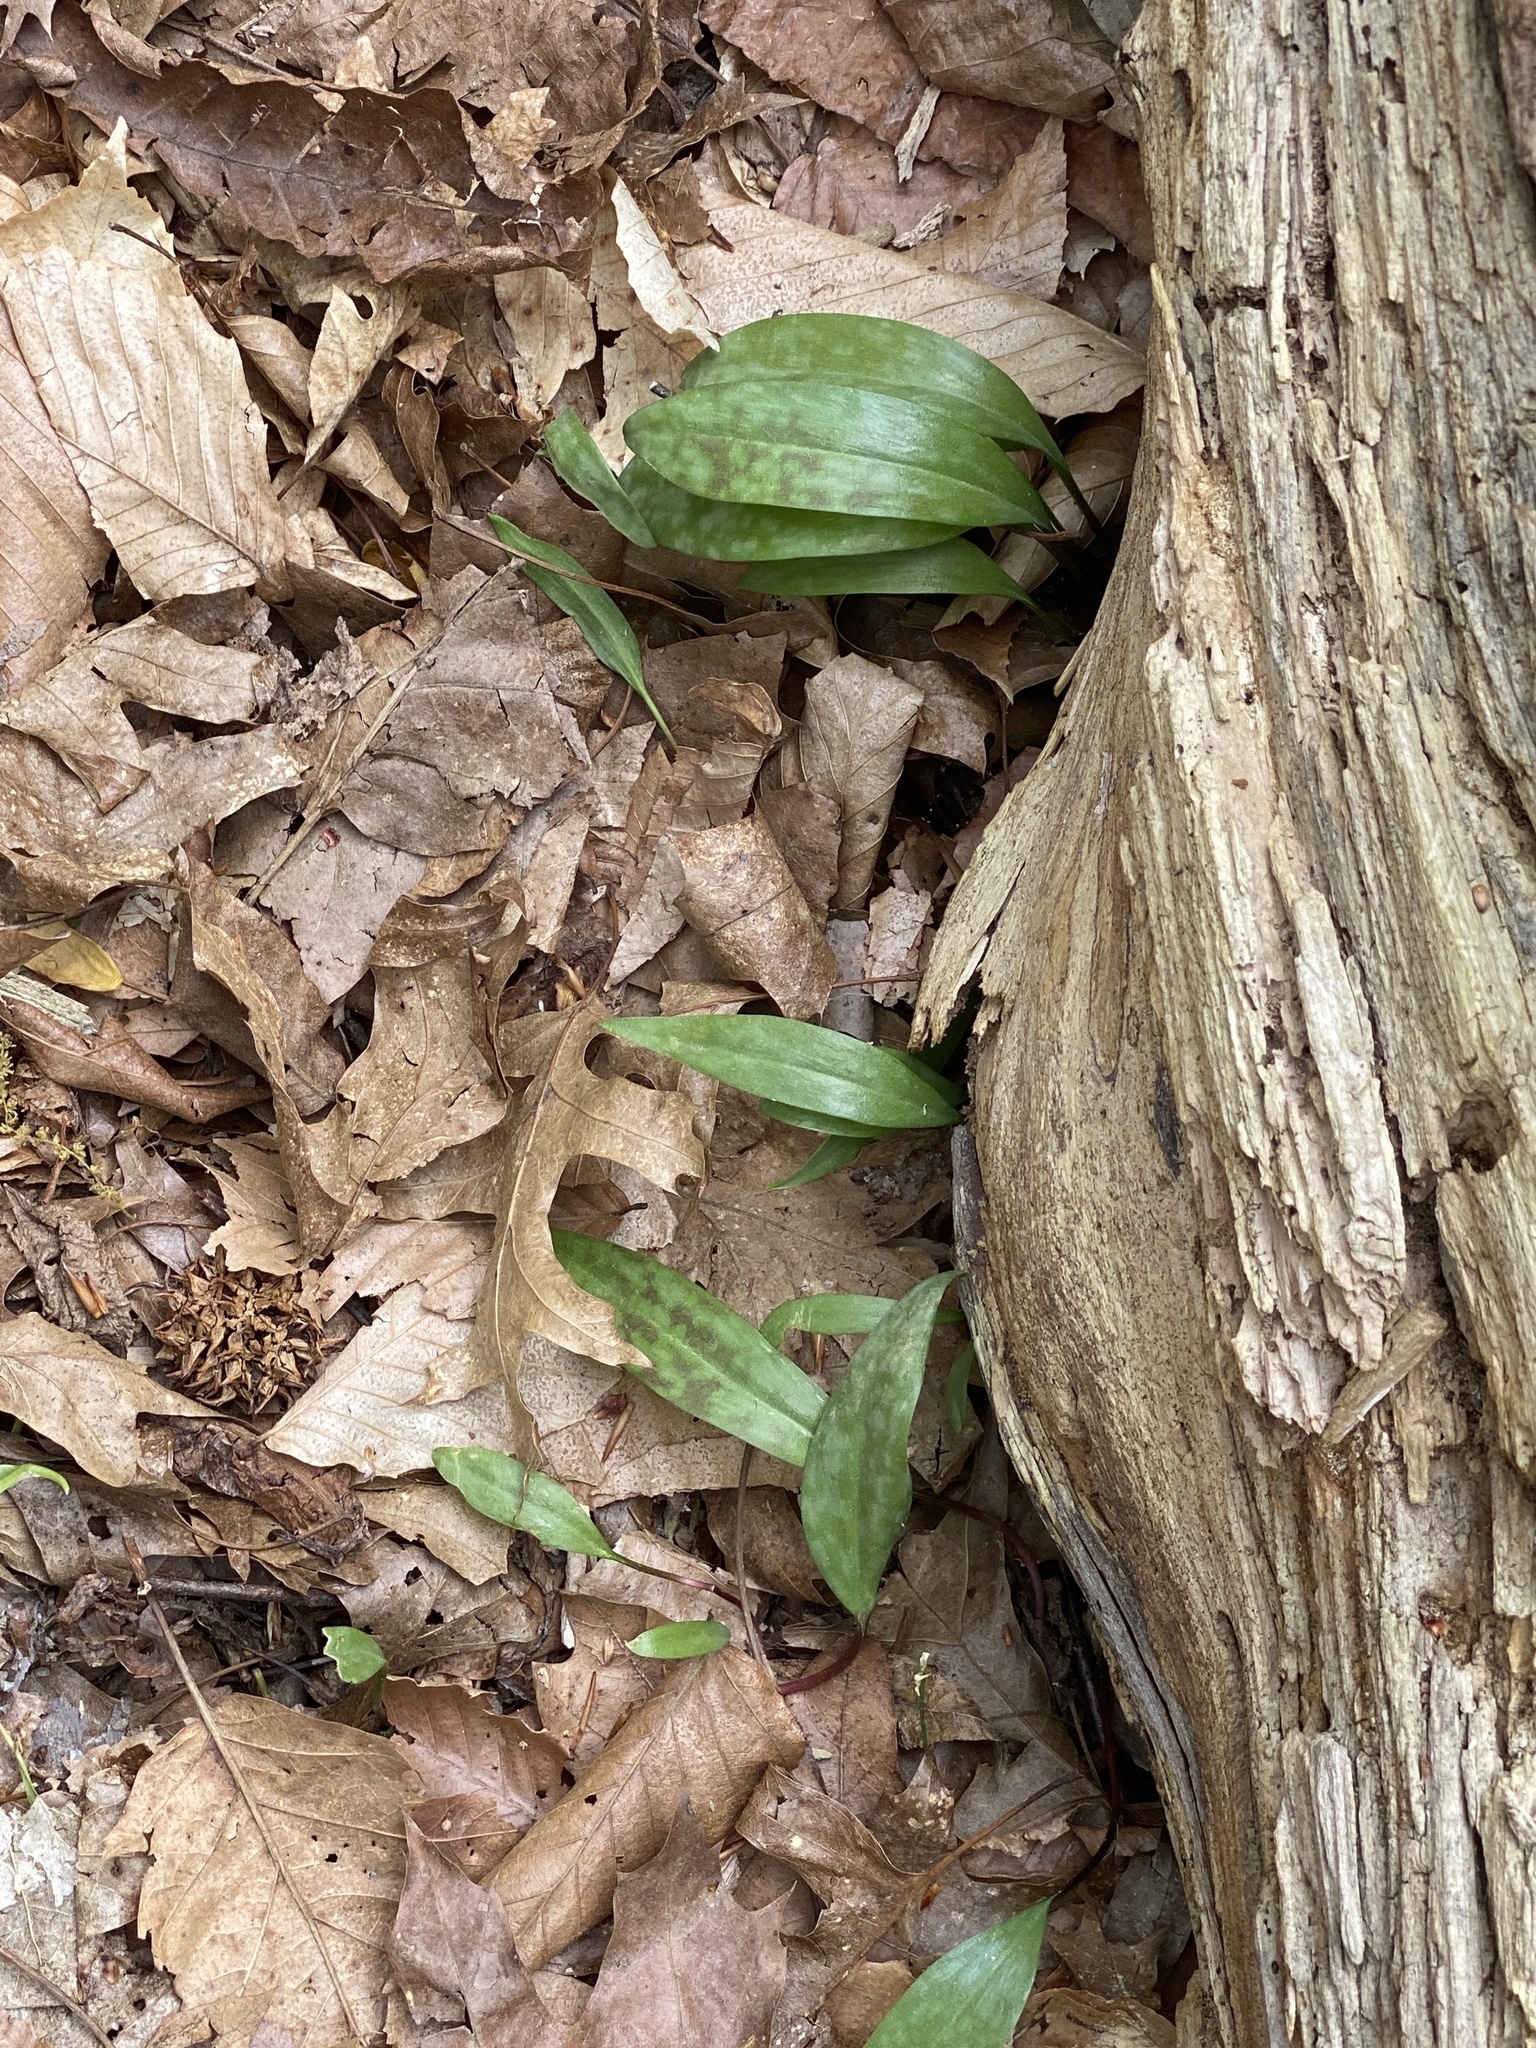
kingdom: Plantae
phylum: Tracheophyta
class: Liliopsida
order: Liliales
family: Liliaceae
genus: Erythronium
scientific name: Erythronium americanum
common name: Yellow adder's-tongue
